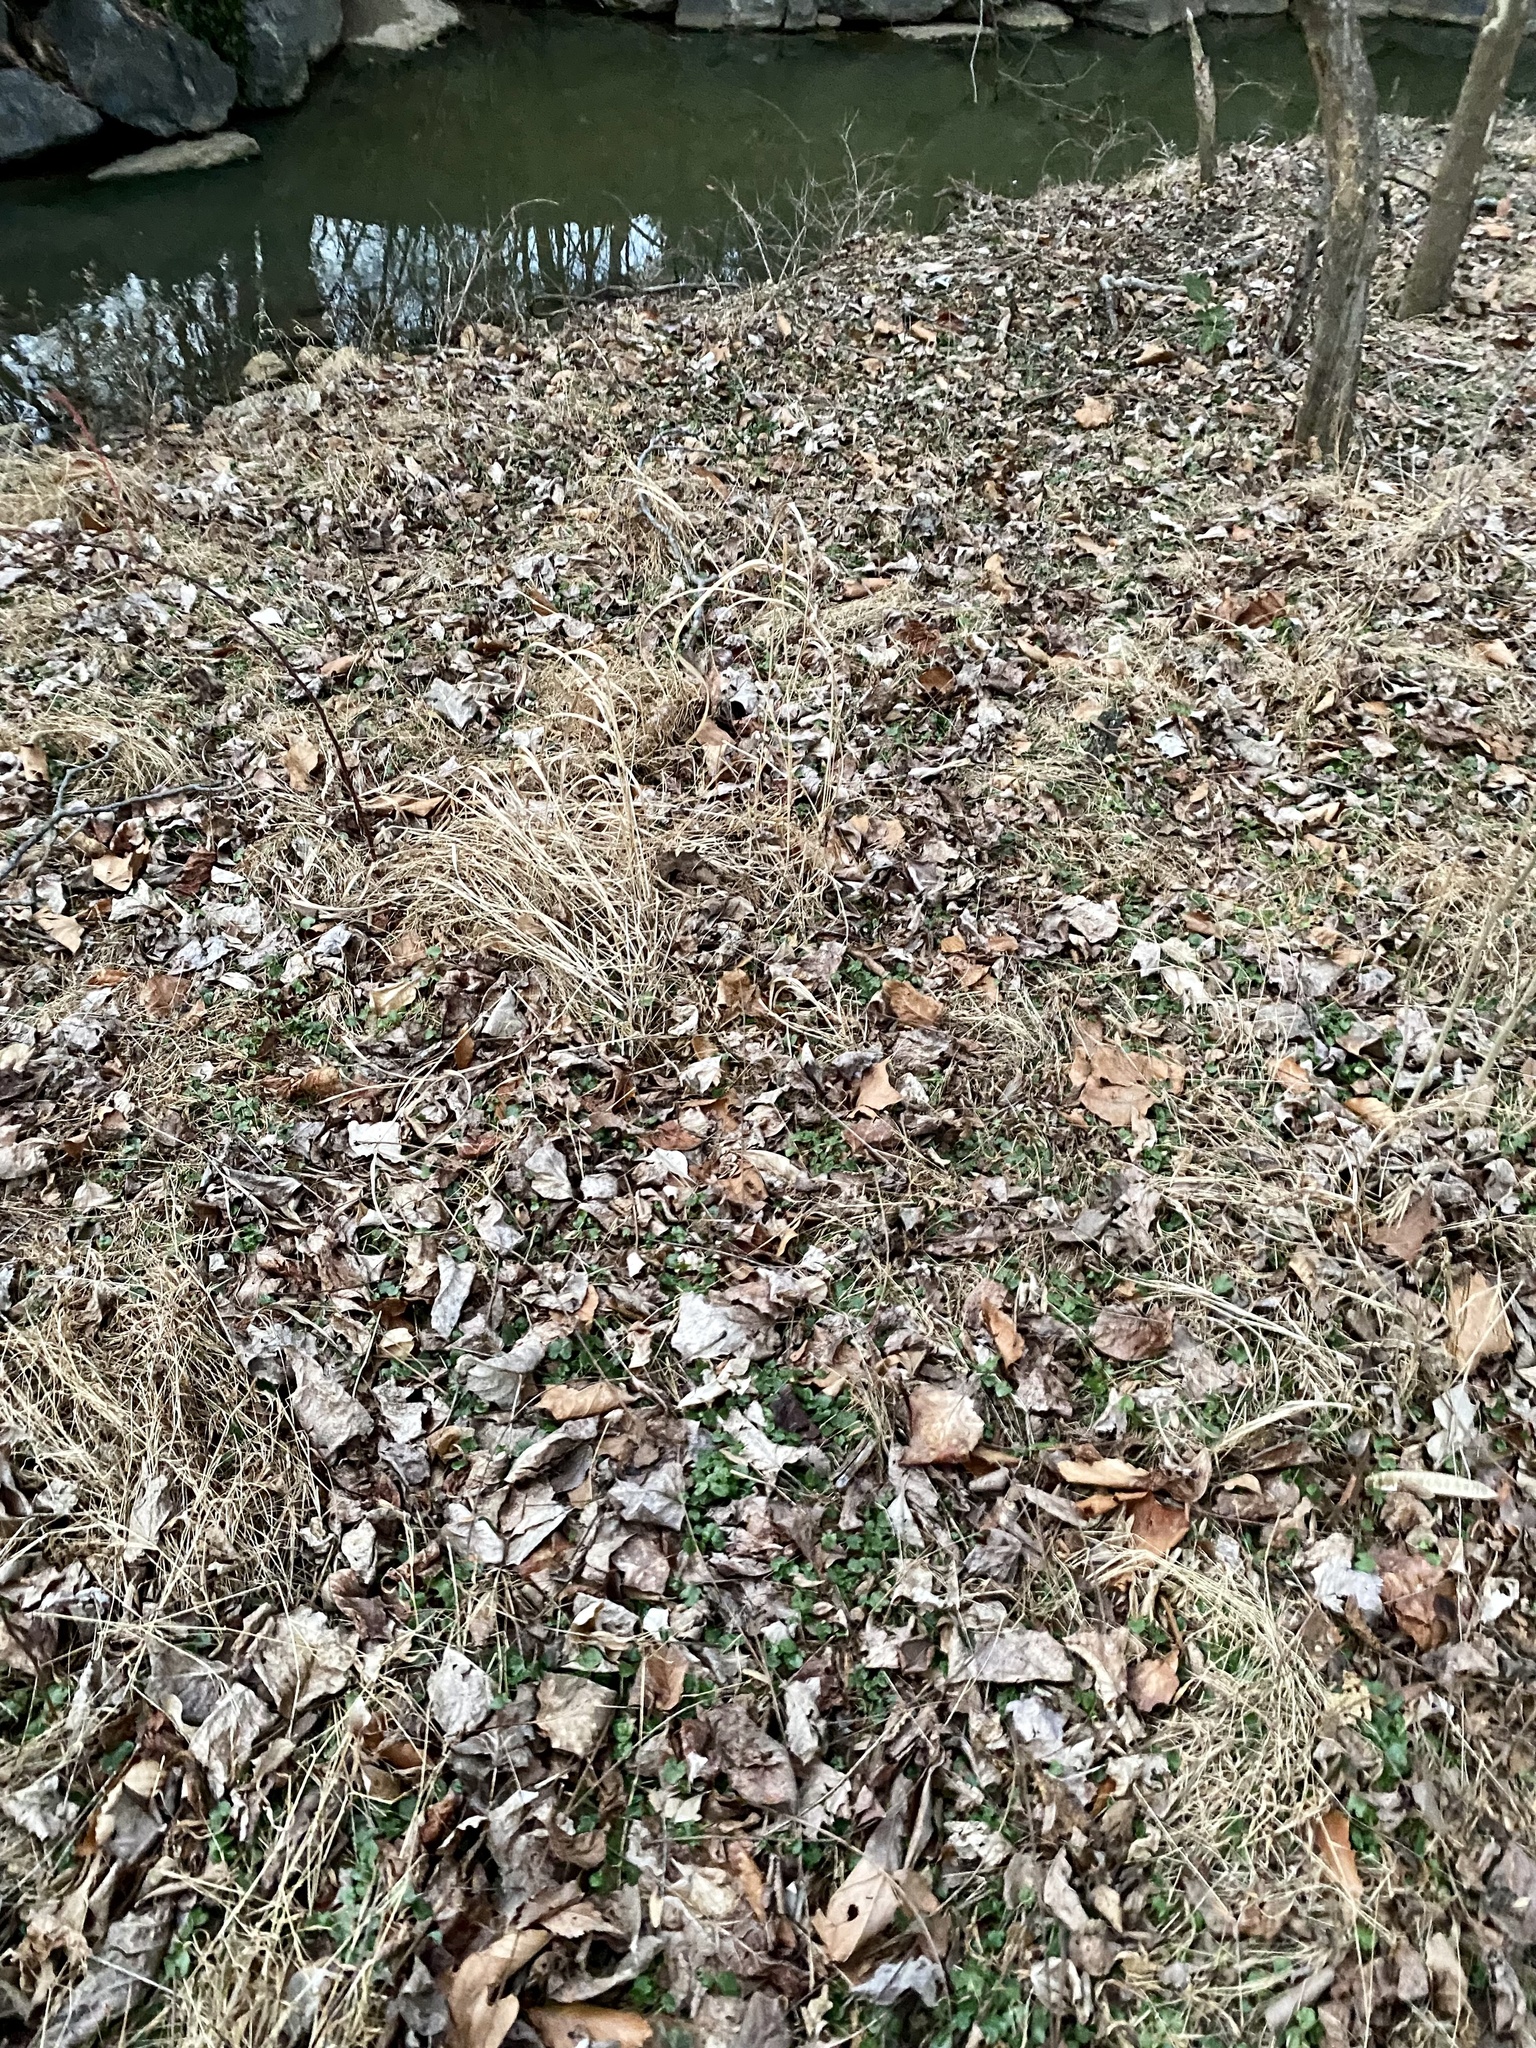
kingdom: Plantae
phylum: Tracheophyta
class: Magnoliopsida
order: Ranunculales
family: Ranunculaceae
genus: Ficaria
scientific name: Ficaria verna
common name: Lesser celandine
